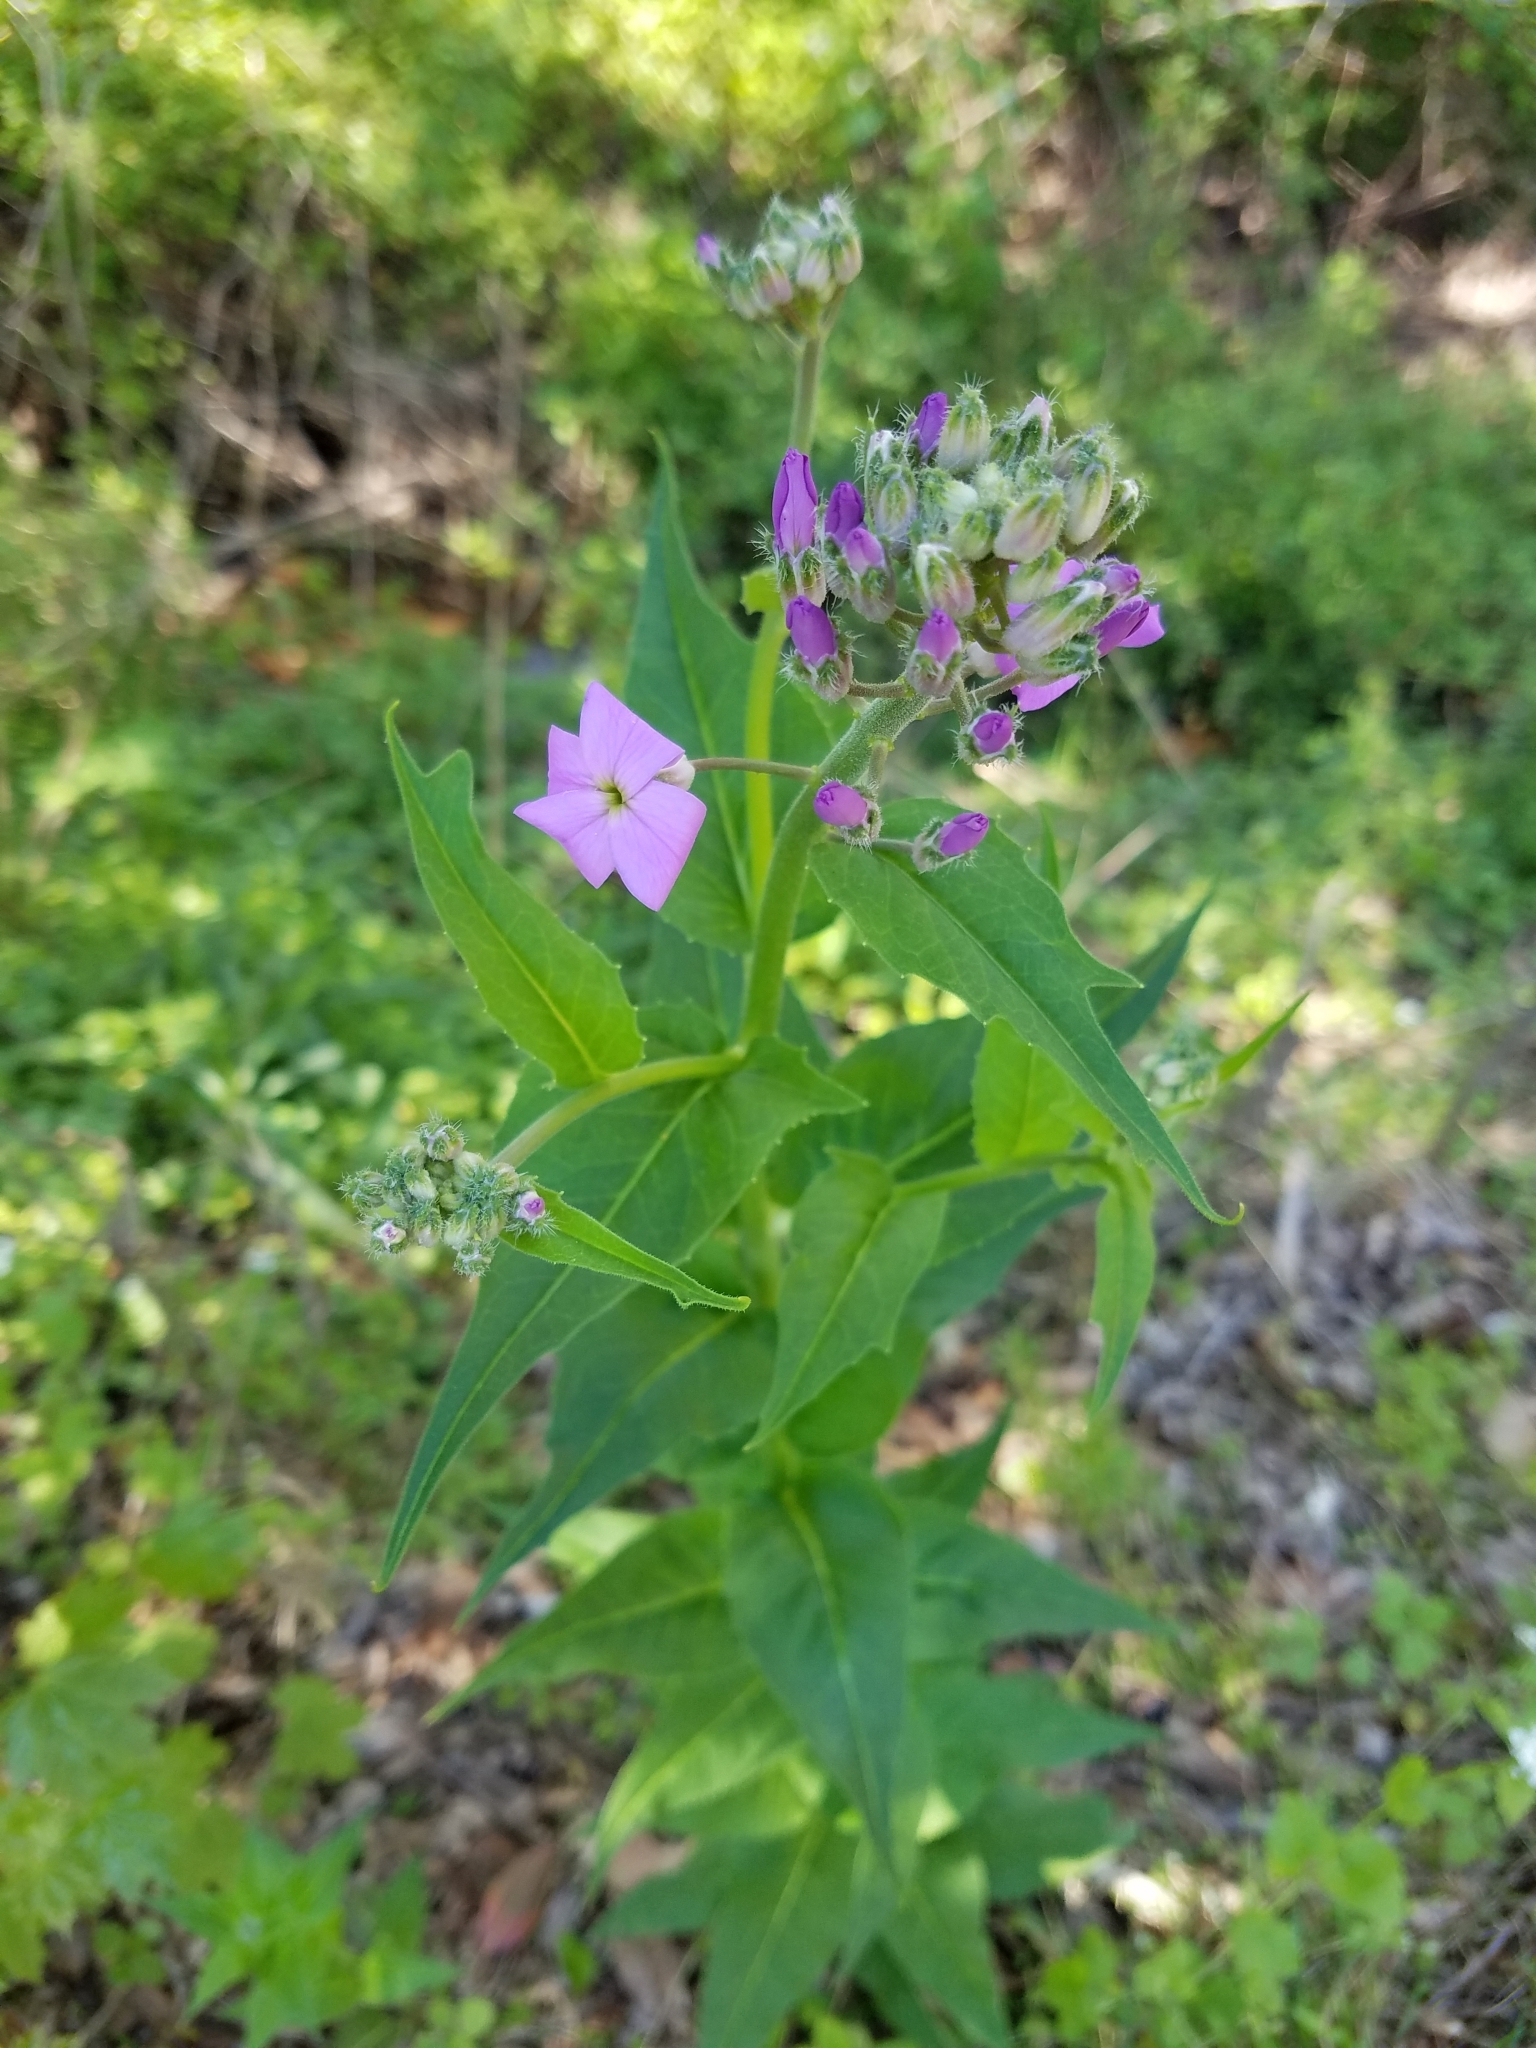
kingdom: Plantae
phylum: Tracheophyta
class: Magnoliopsida
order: Brassicales
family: Brassicaceae
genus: Hesperis
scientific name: Hesperis matronalis
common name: Dame's-violet
